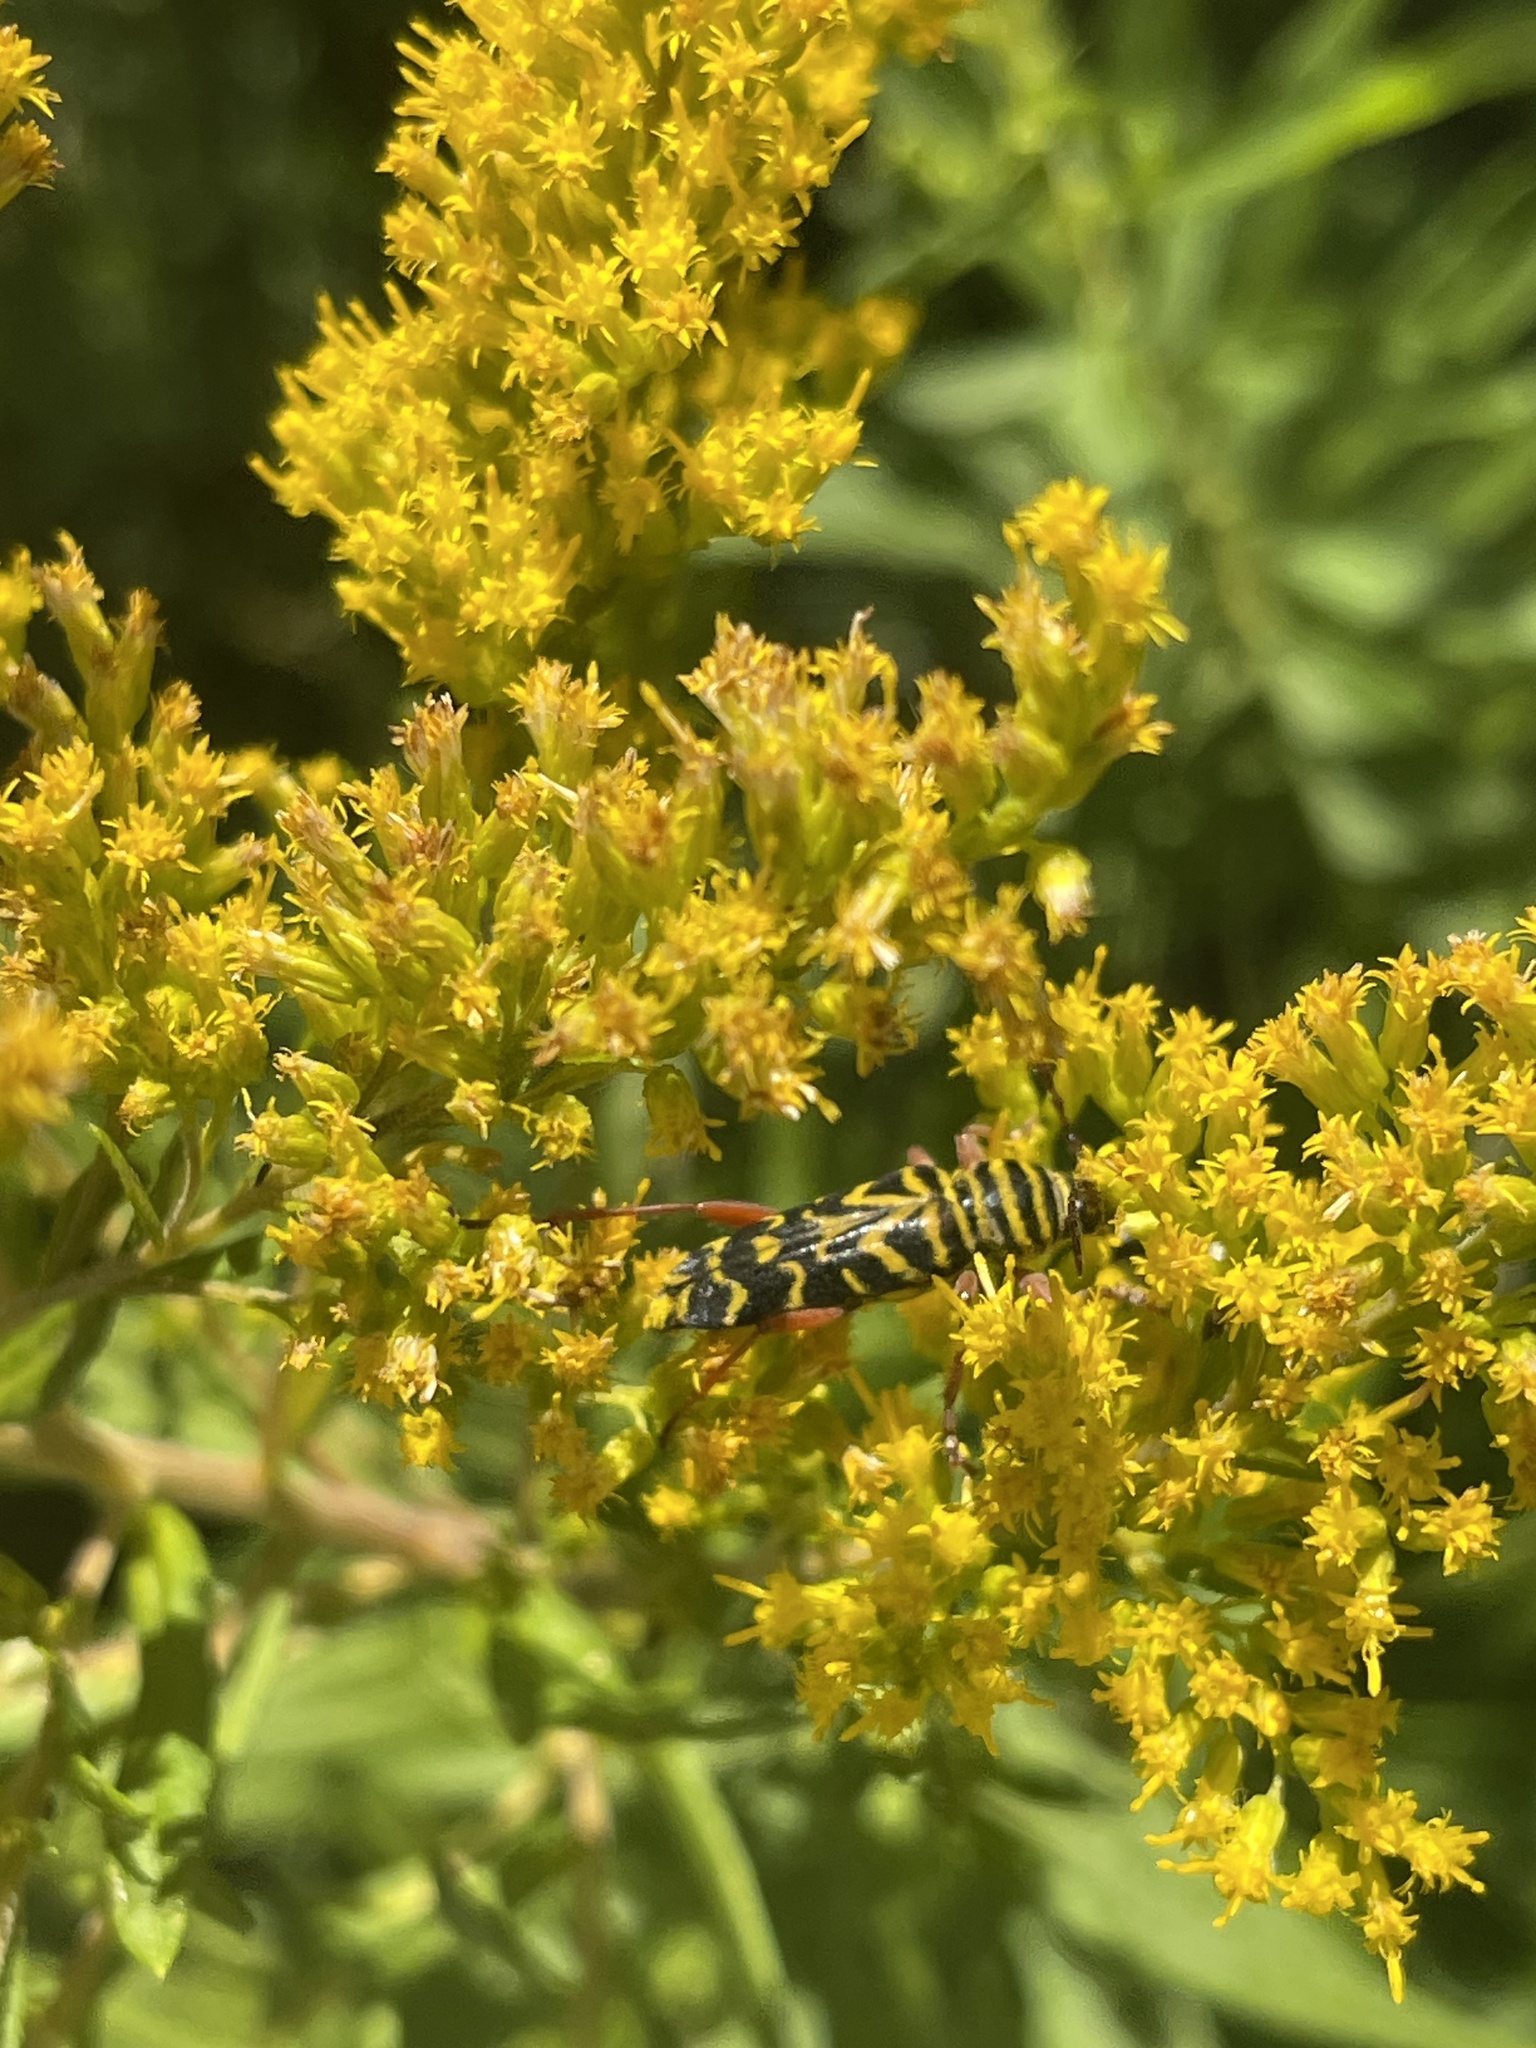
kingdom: Animalia
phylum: Arthropoda
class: Insecta
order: Coleoptera
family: Cerambycidae
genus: Megacyllene
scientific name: Megacyllene robiniae
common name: Locust borer
